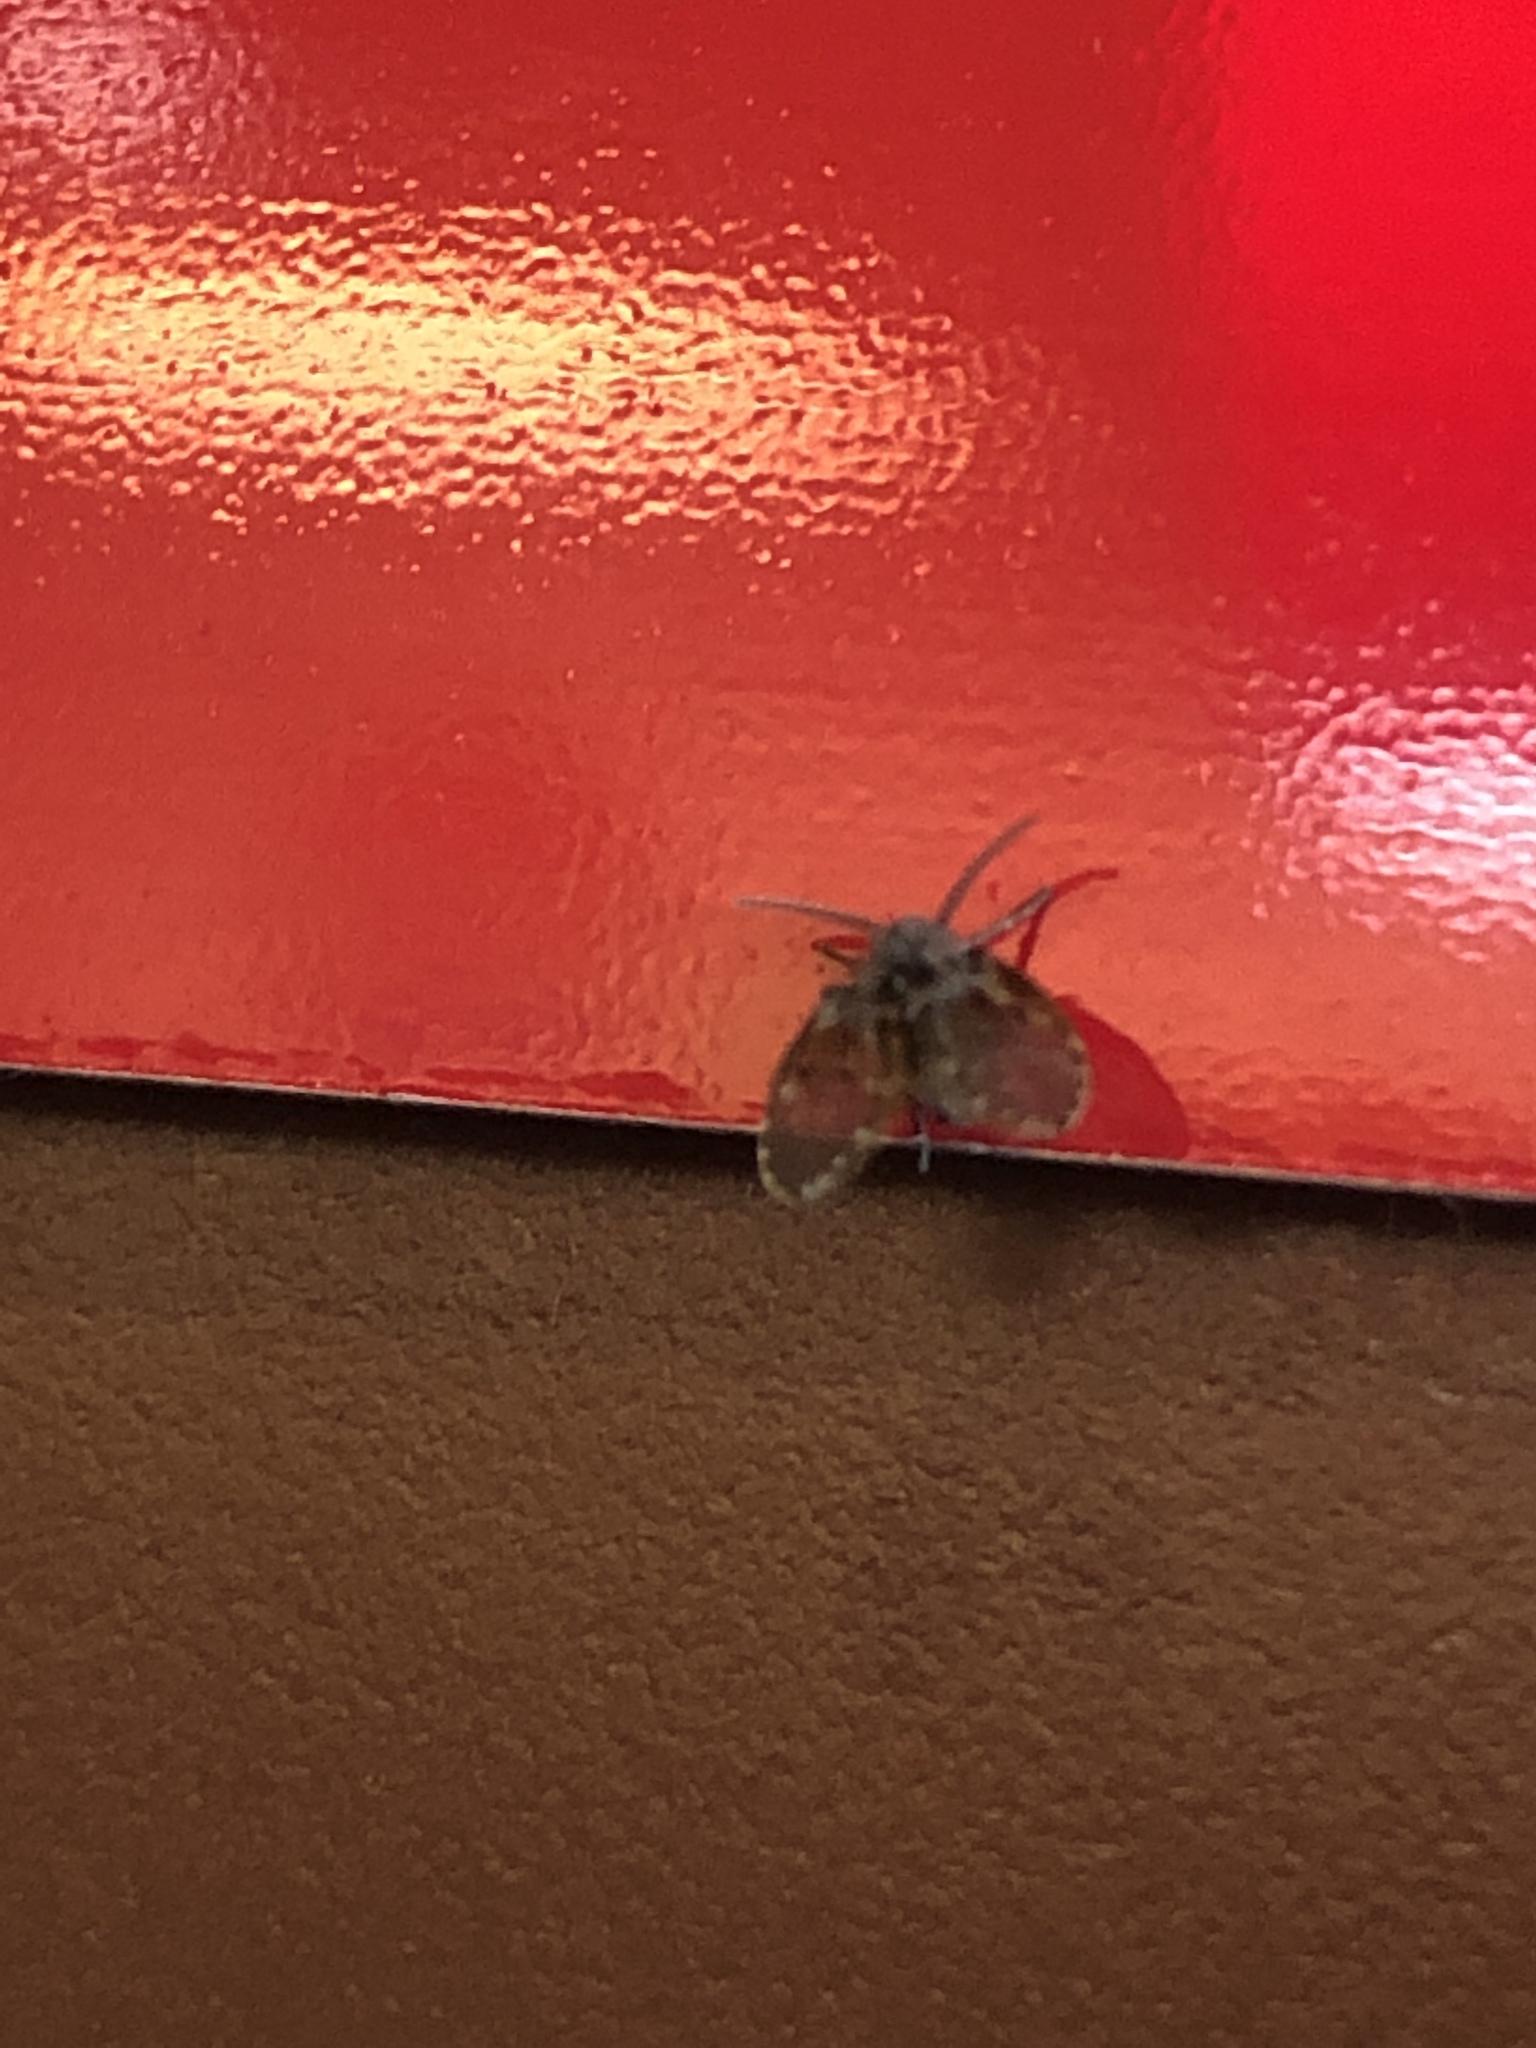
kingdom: Animalia
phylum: Arthropoda
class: Insecta
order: Diptera
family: Psychodidae
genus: Clogmia
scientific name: Clogmia albipunctatus
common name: White-spotted moth fly
